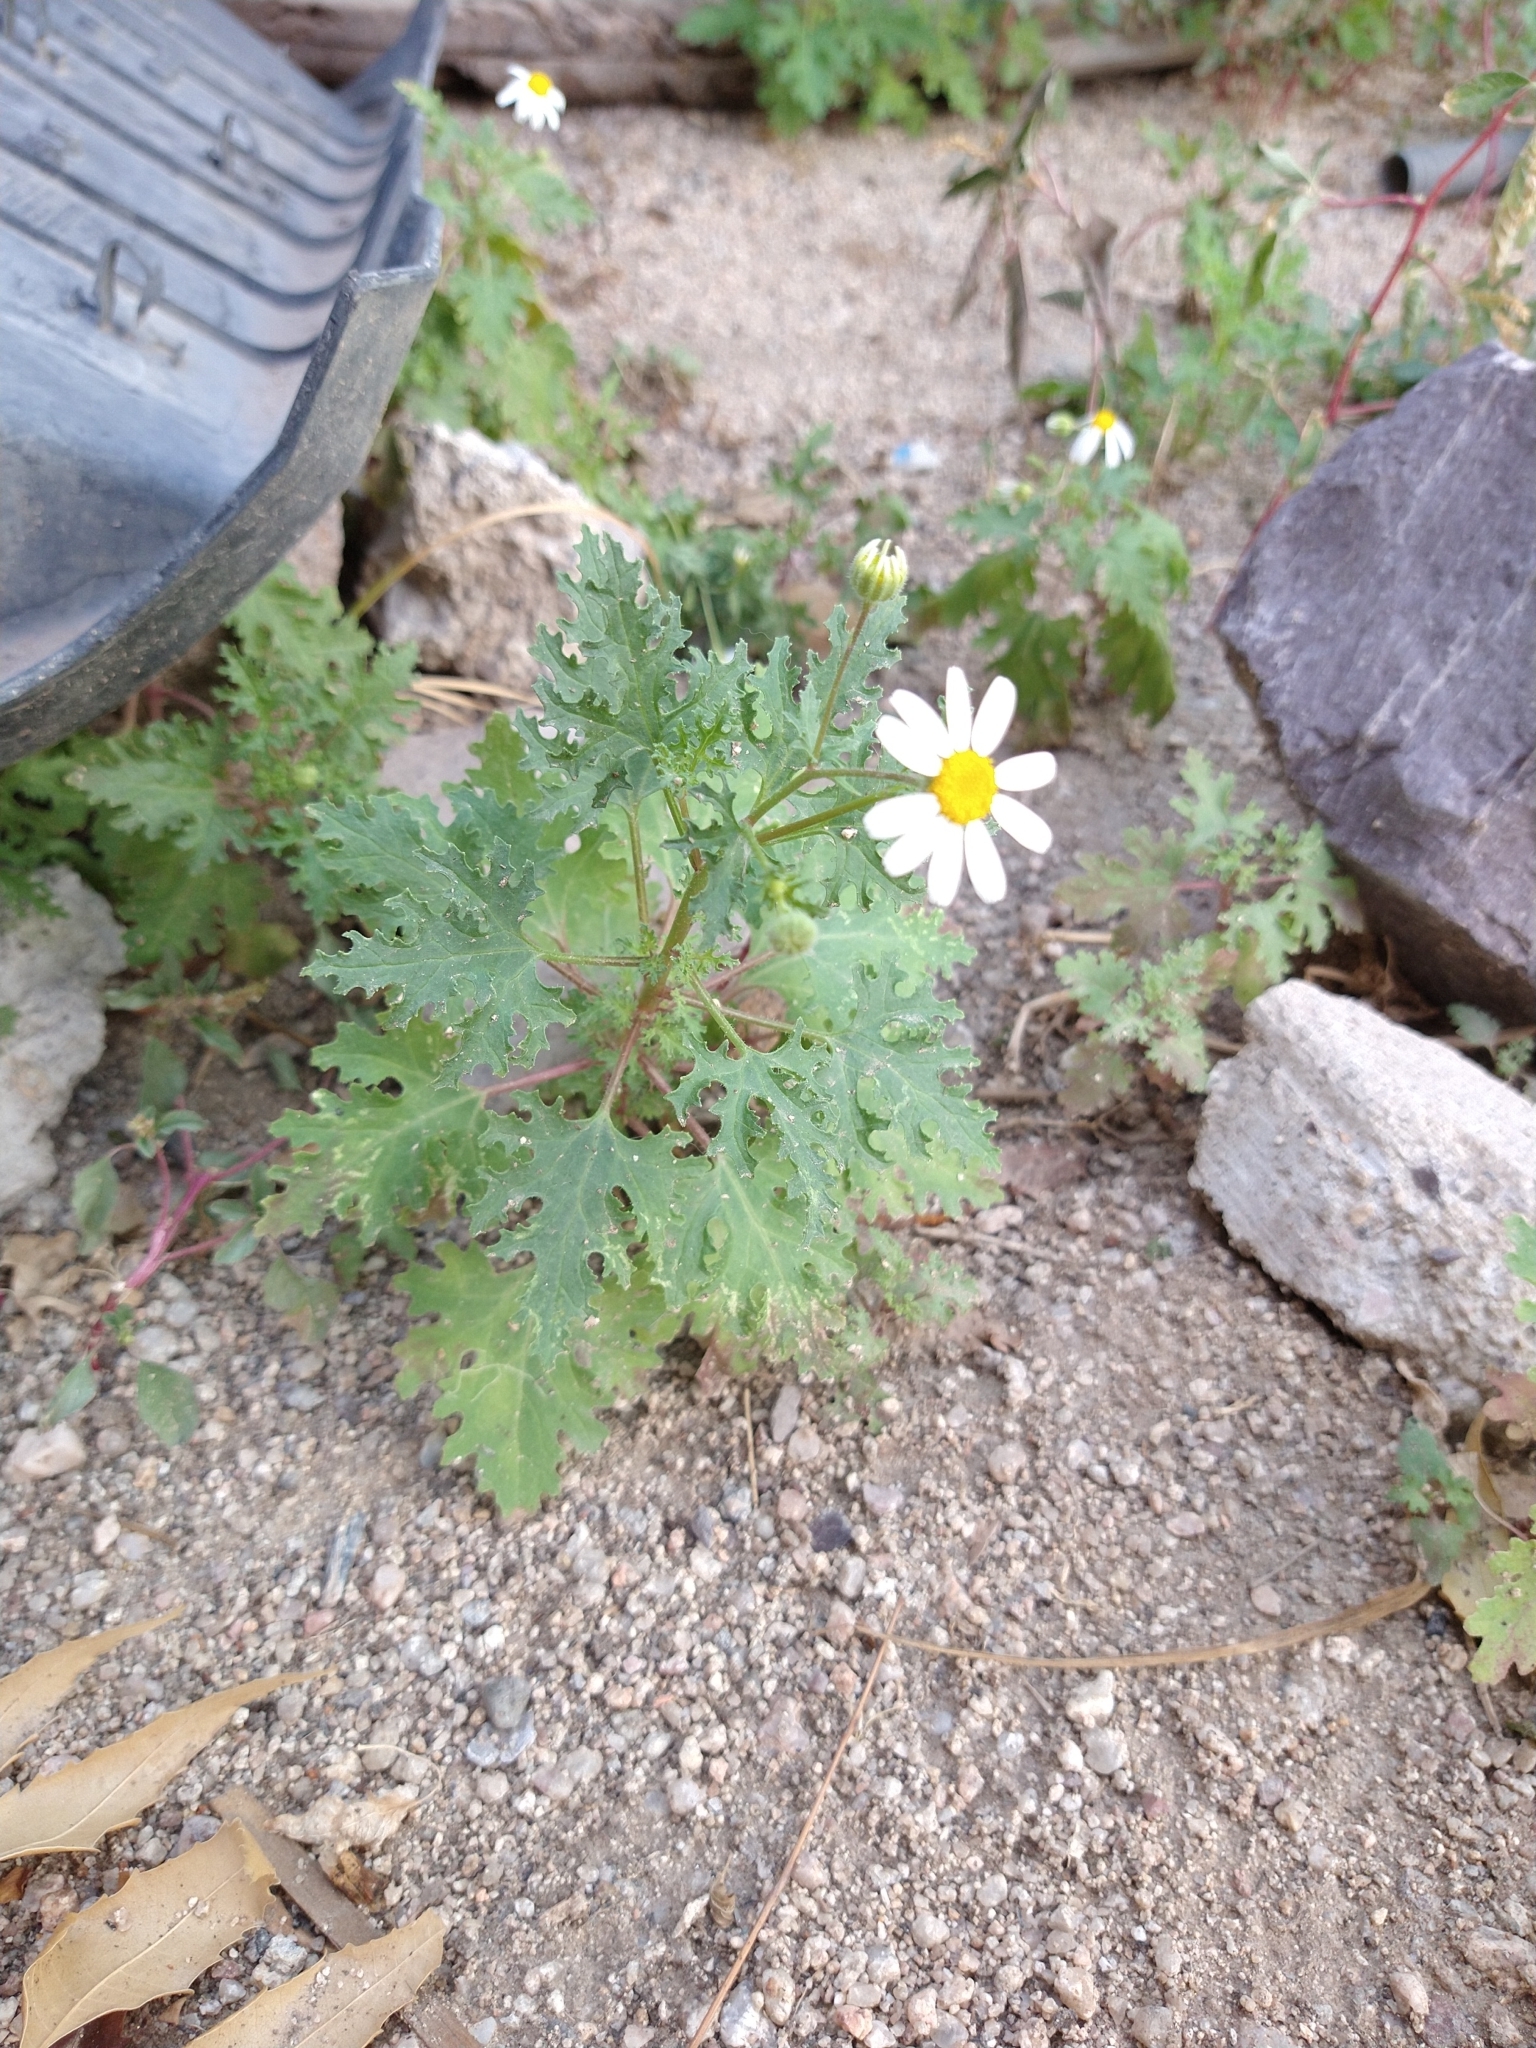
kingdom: Plantae
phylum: Tracheophyta
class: Magnoliopsida
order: Asterales
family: Asteraceae
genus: Perityle
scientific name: Perityle crassifolia
